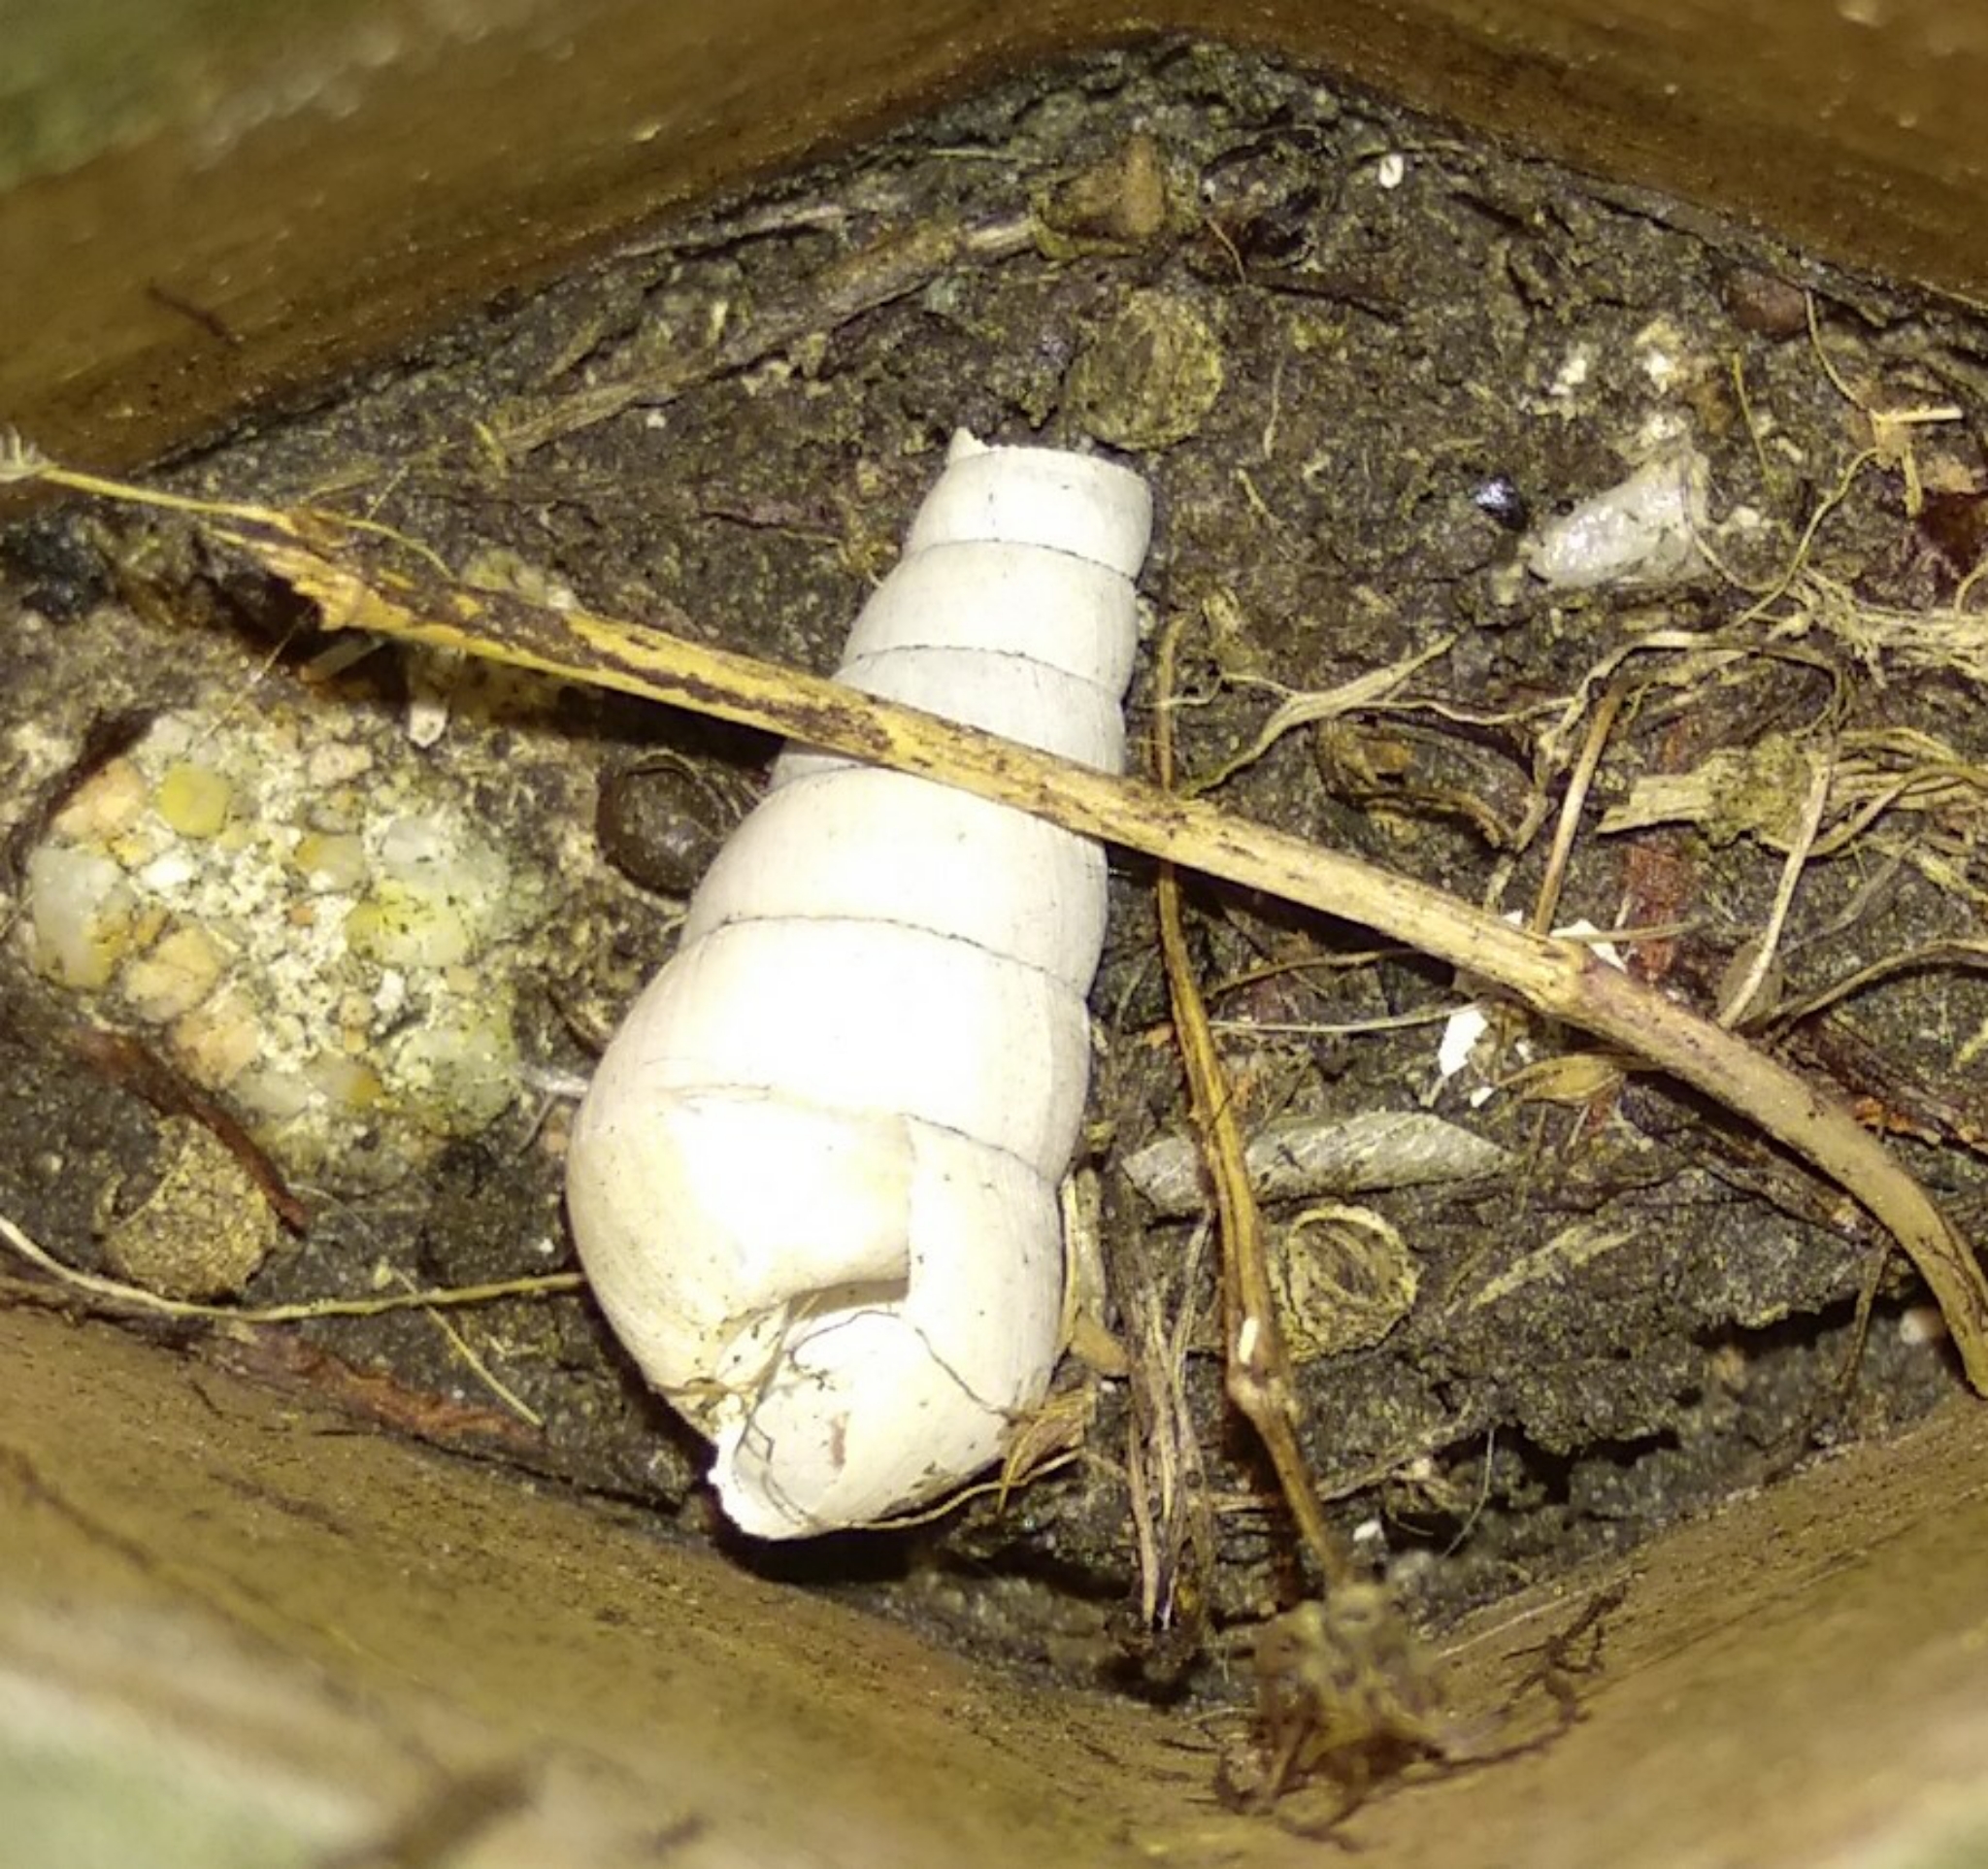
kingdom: Animalia
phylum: Mollusca
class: Gastropoda
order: Stylommatophora
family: Achatinidae
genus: Rumina
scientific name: Rumina decollata
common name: Decollate snail
